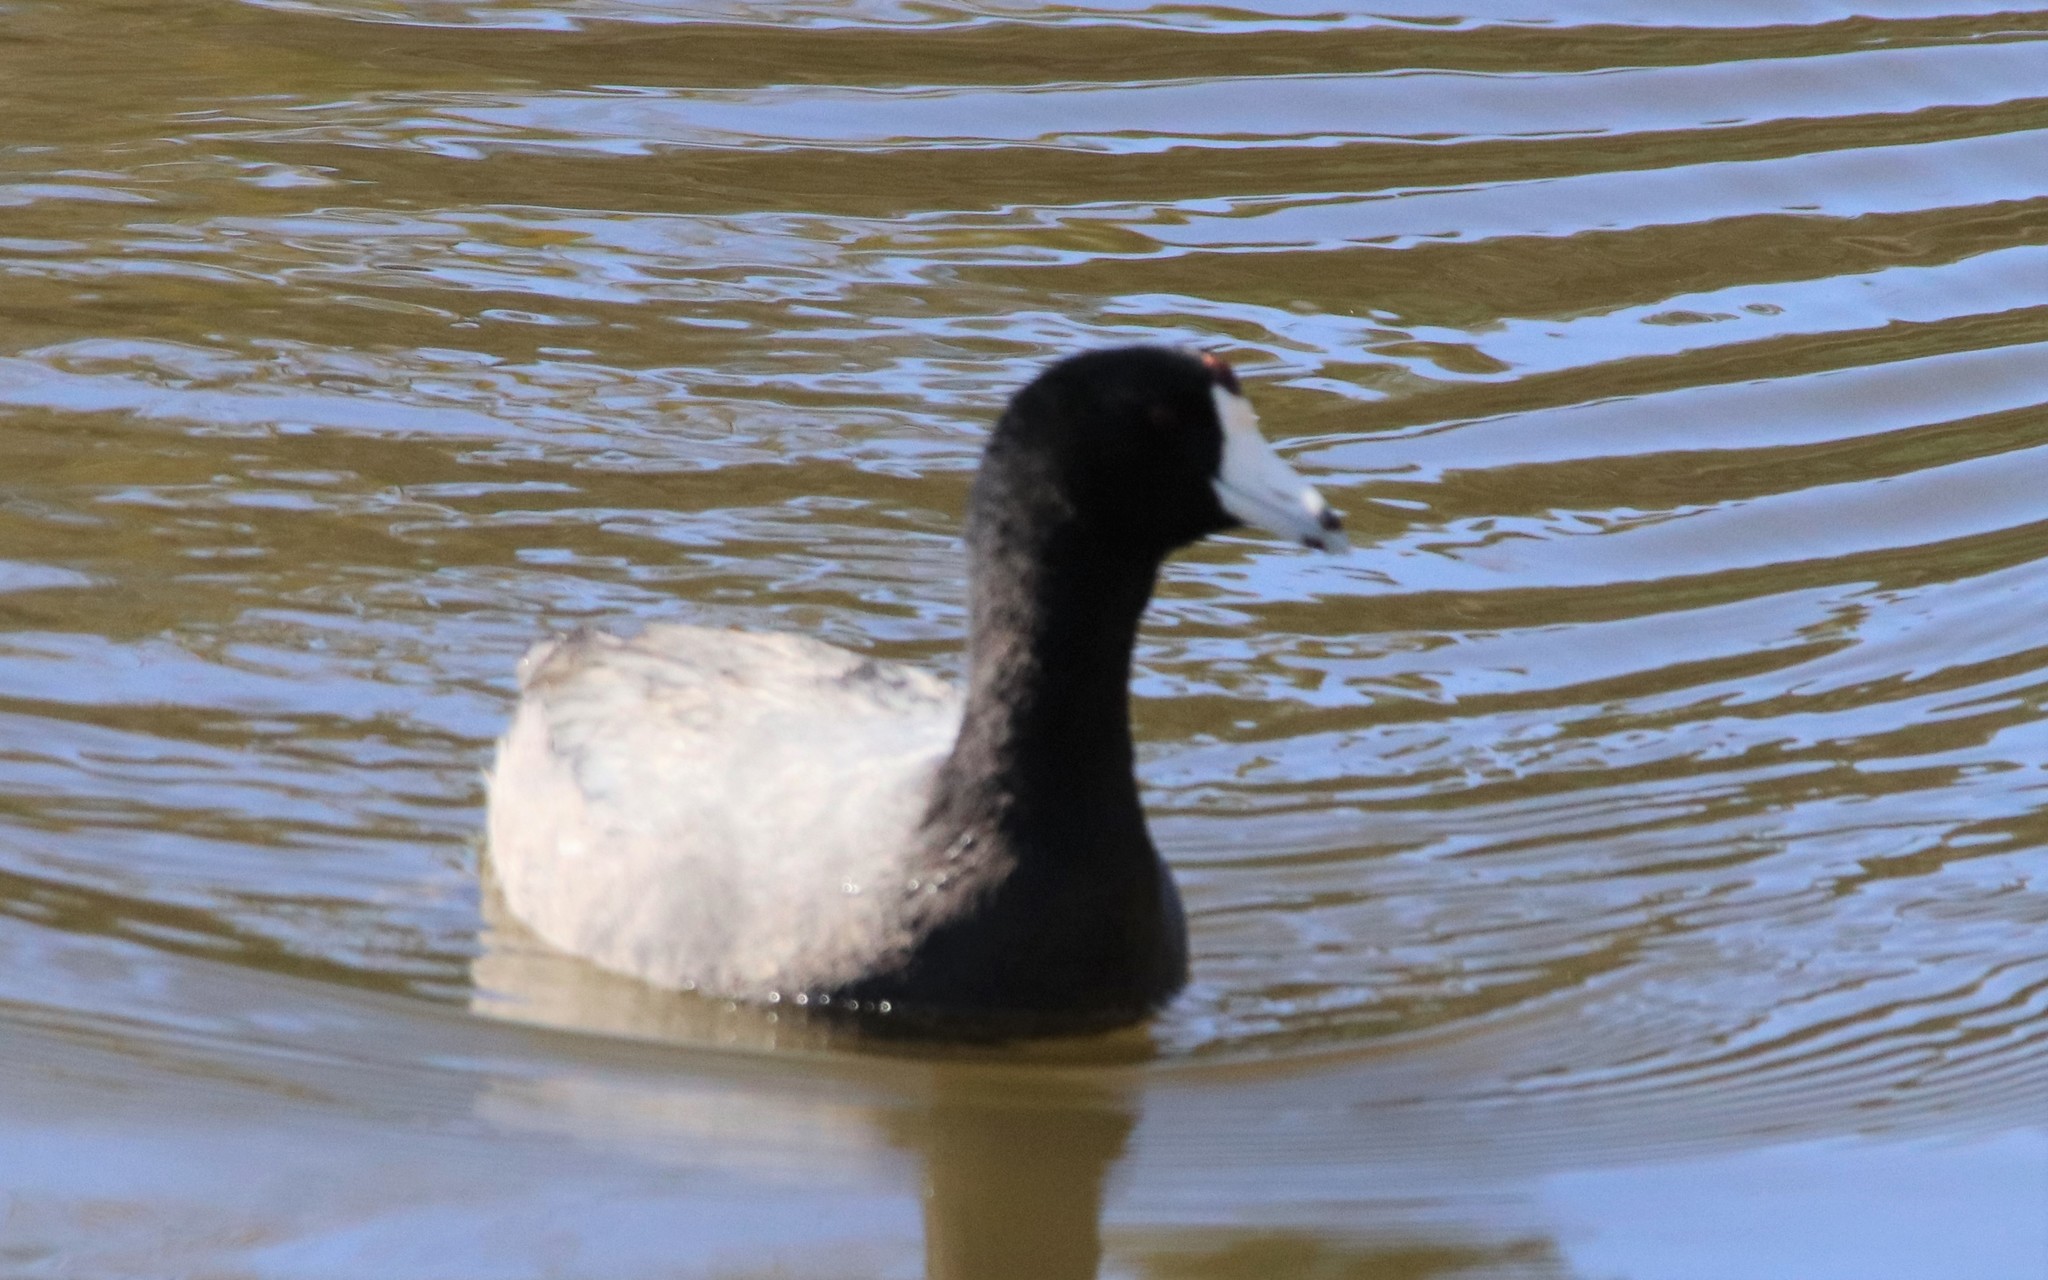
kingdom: Animalia
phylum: Chordata
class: Aves
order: Gruiformes
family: Rallidae
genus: Fulica
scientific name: Fulica americana
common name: American coot
